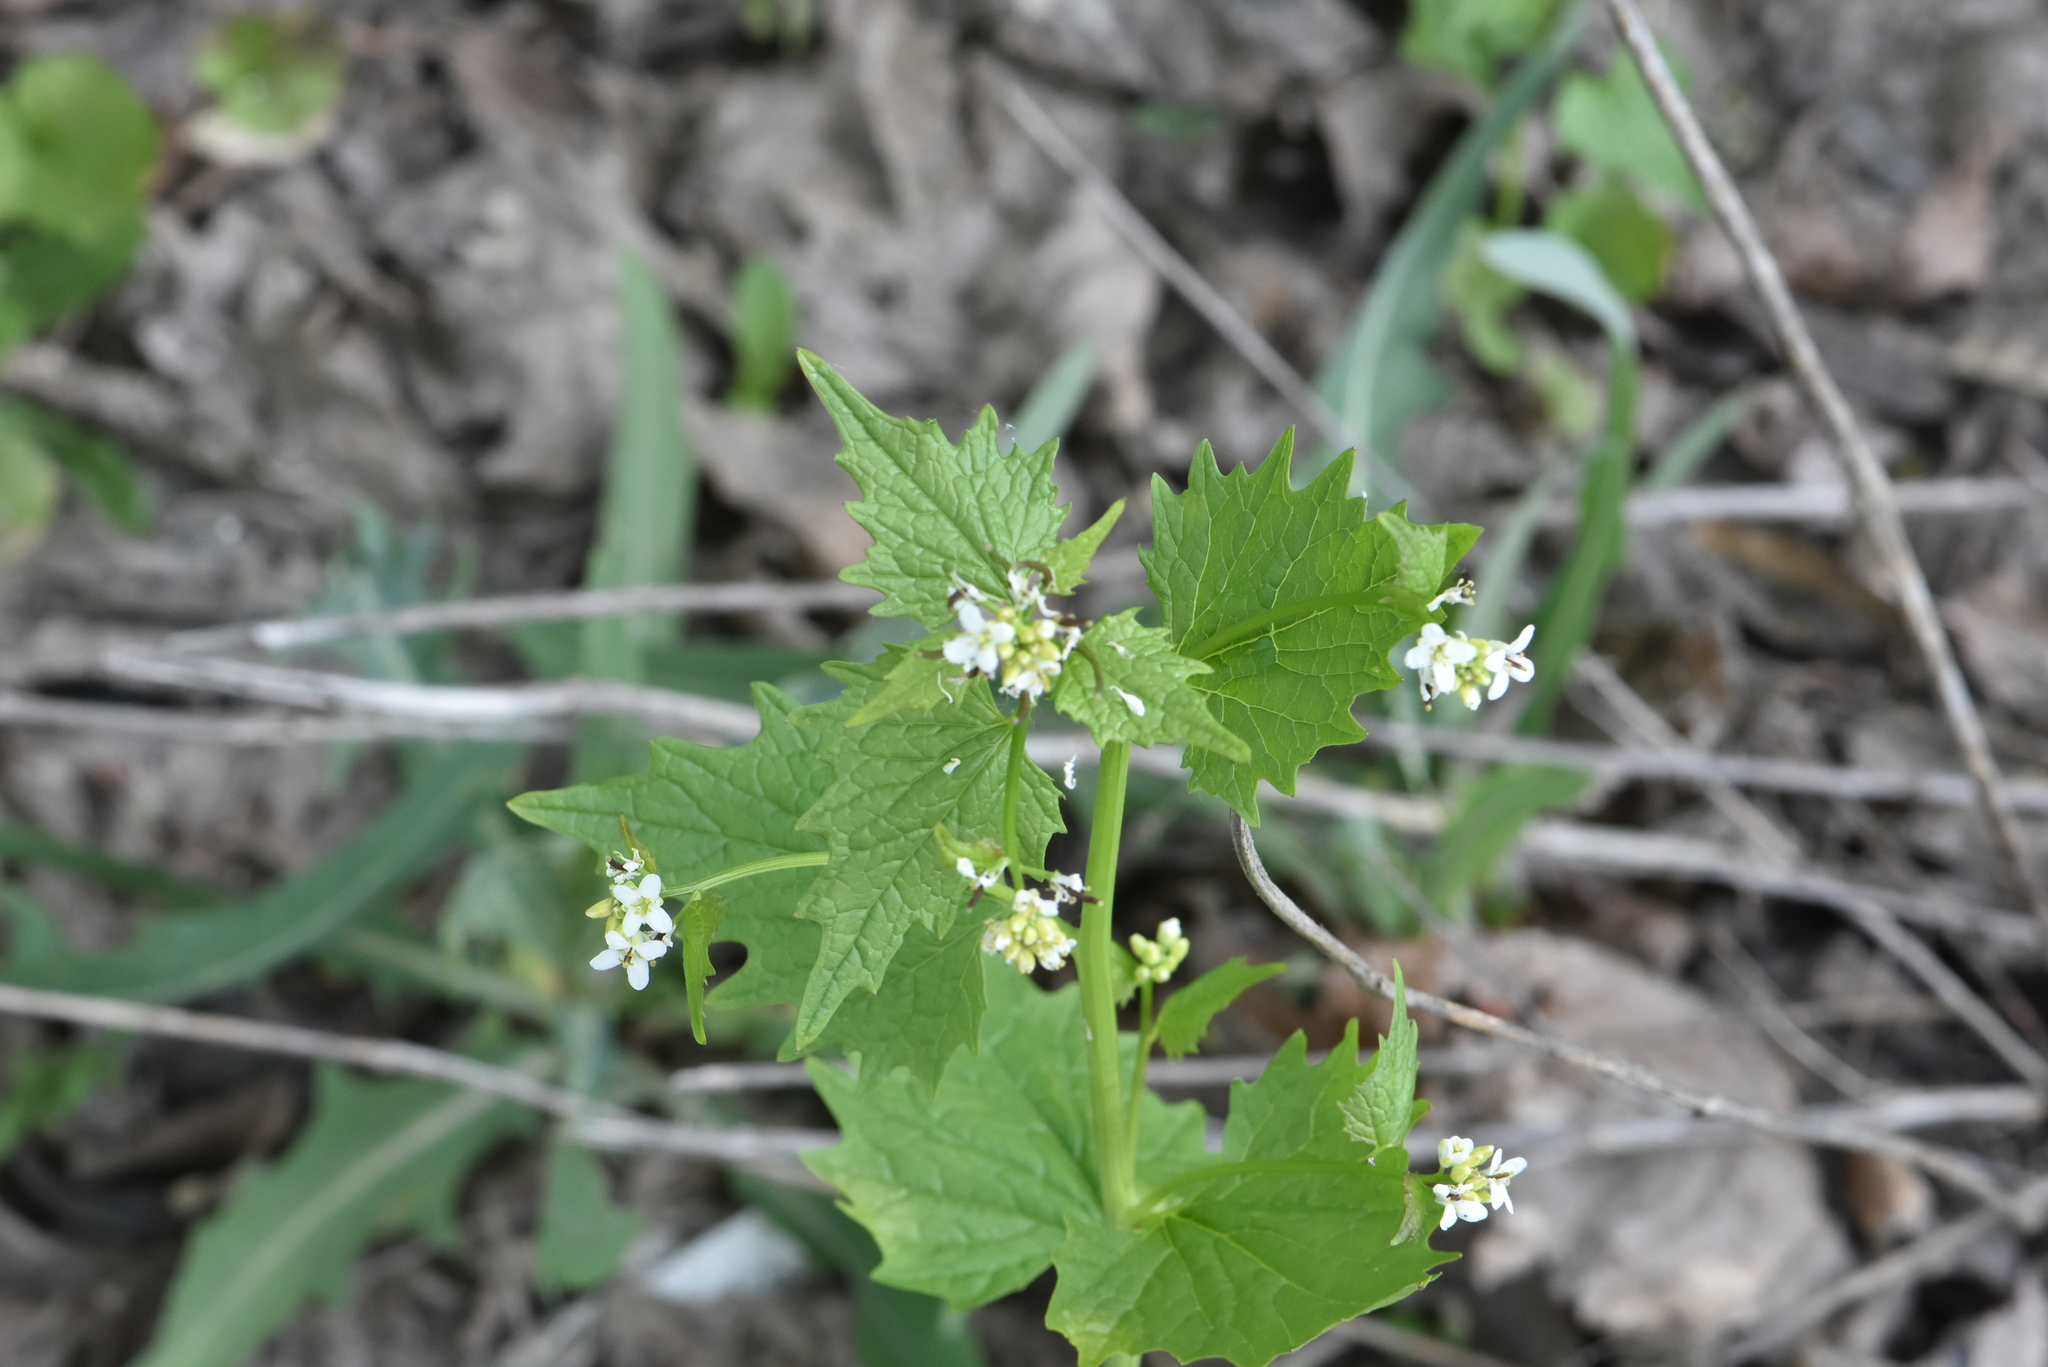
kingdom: Plantae
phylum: Tracheophyta
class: Magnoliopsida
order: Brassicales
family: Brassicaceae
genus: Alliaria
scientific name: Alliaria petiolata
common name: Garlic mustard
